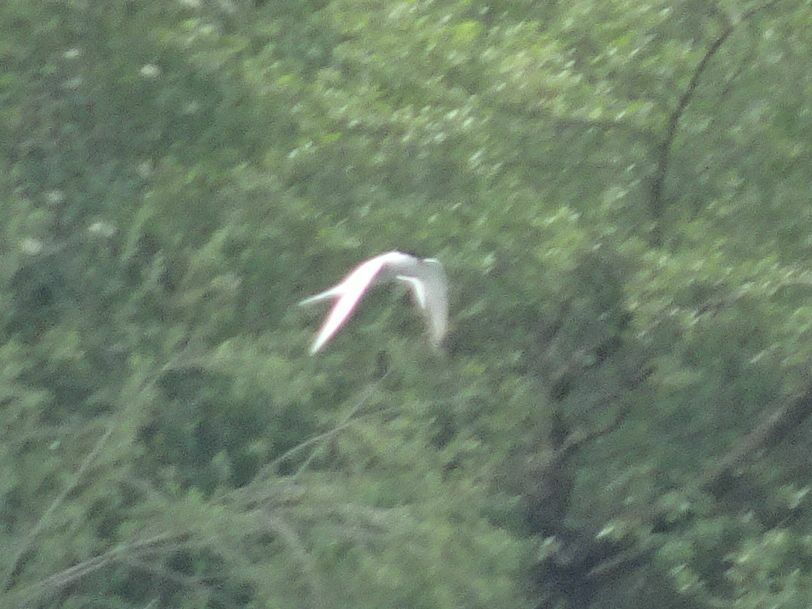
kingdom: Animalia
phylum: Chordata
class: Aves
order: Charadriiformes
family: Laridae
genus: Sterna
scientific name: Sterna hirundo
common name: Common tern
